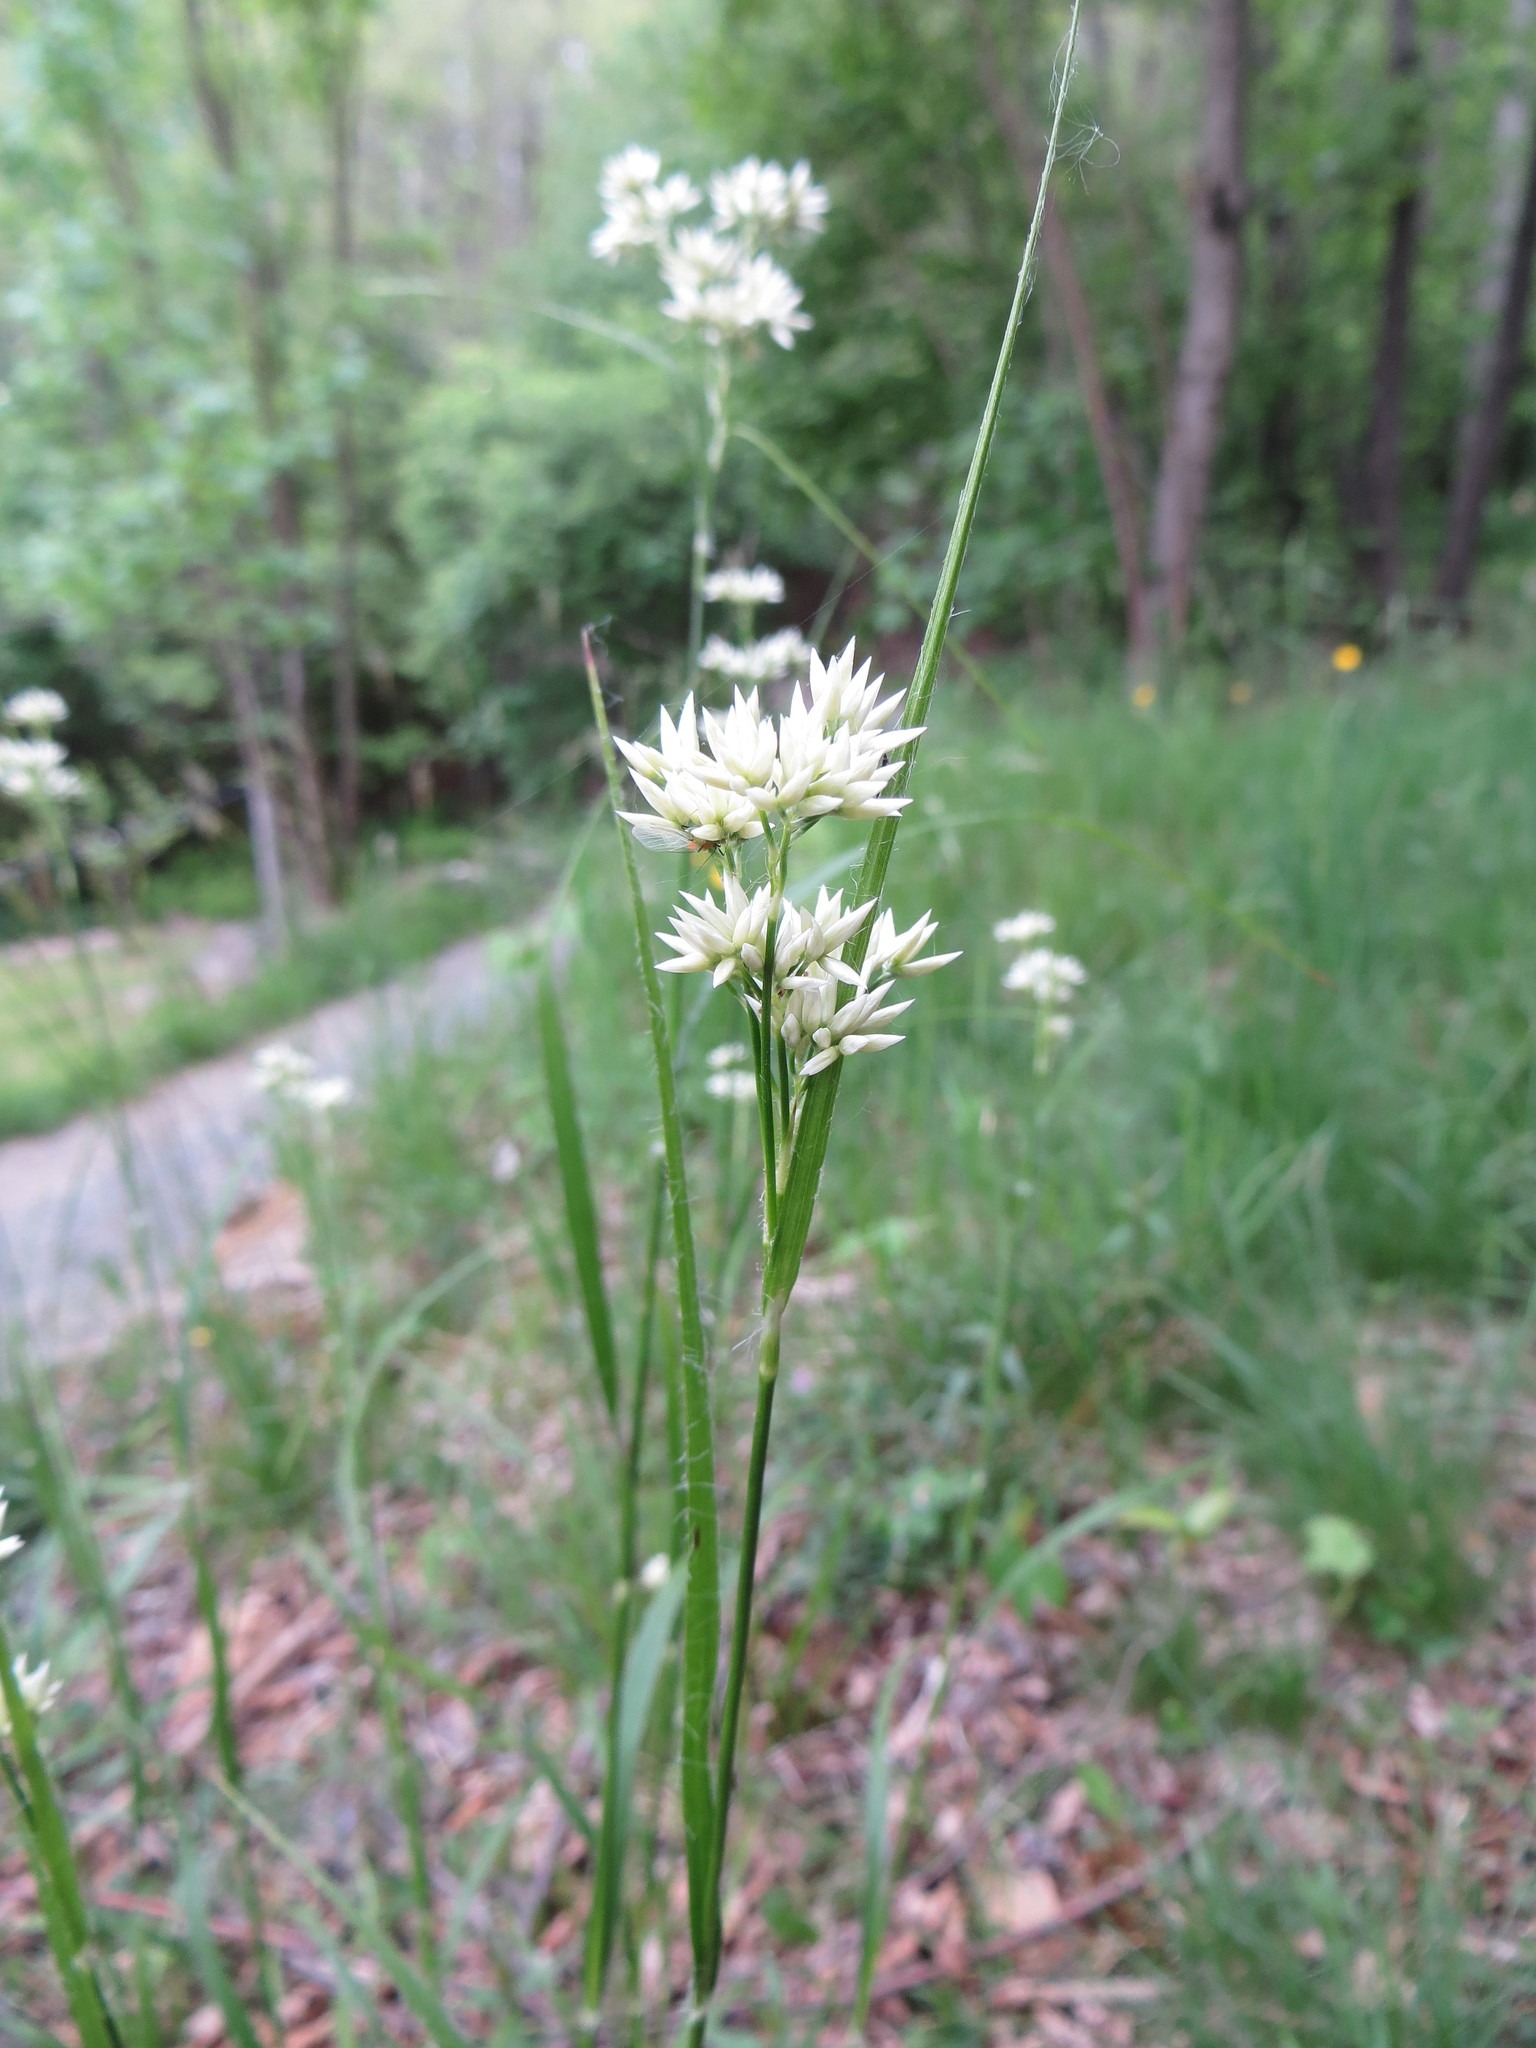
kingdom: Plantae
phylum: Tracheophyta
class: Liliopsida
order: Poales
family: Juncaceae
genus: Luzula
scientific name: Luzula nivea
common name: Snow-white wood-rush
